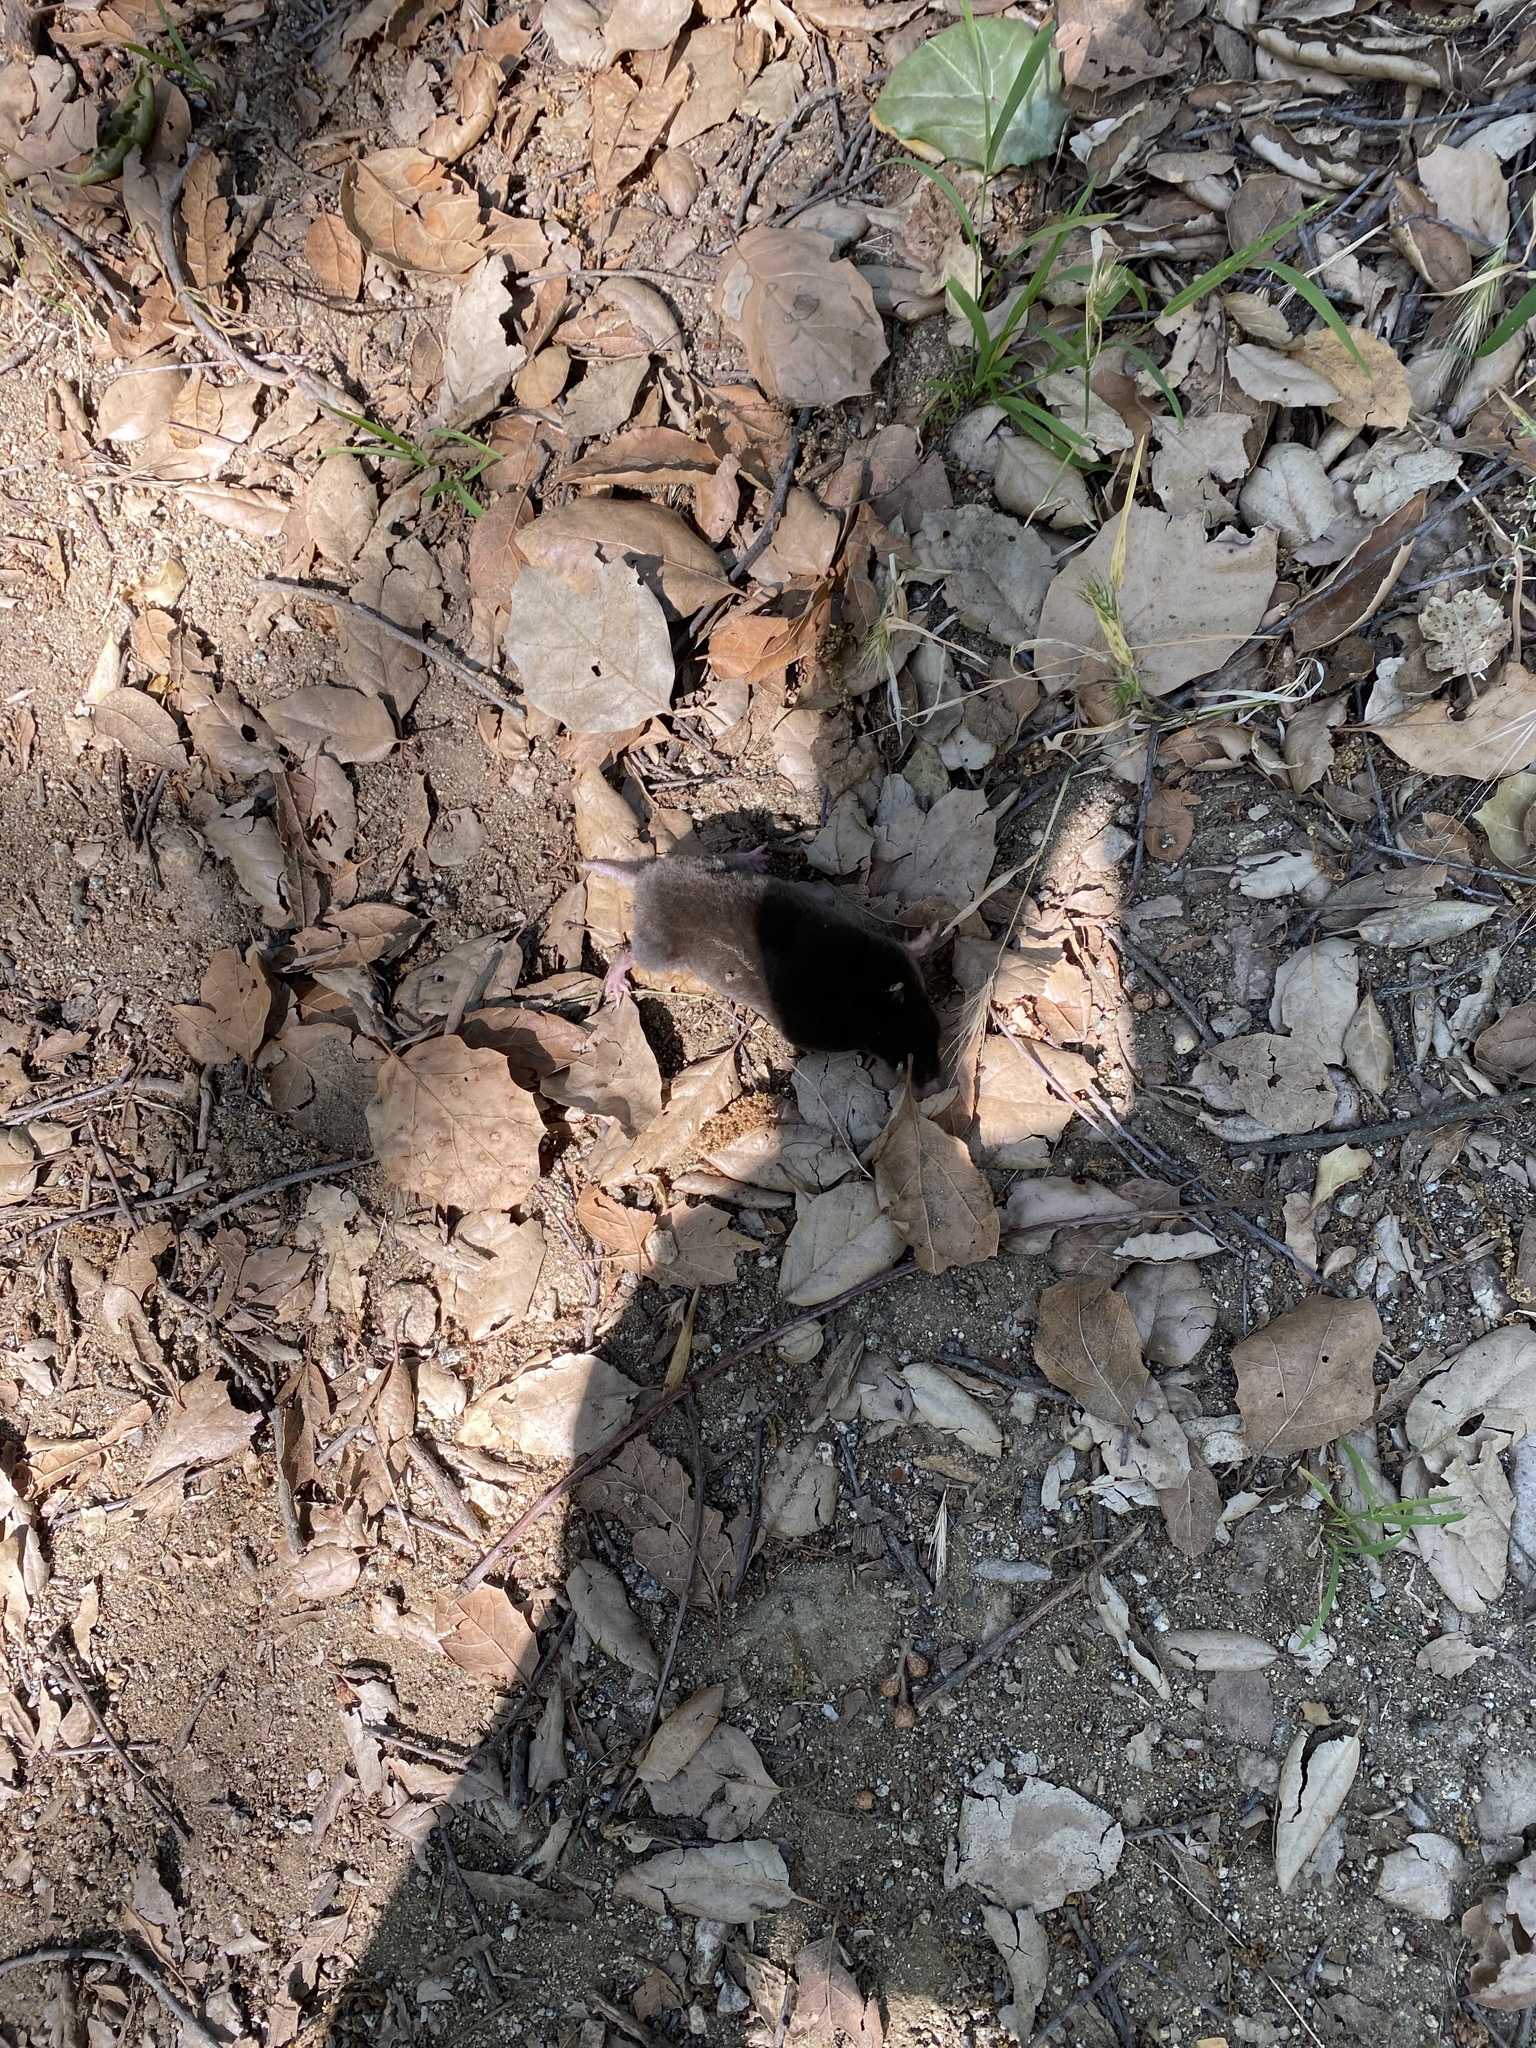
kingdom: Animalia
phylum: Chordata
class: Mammalia
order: Soricomorpha
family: Talpidae
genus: Scapanus
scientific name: Scapanus latimanus
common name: Broad-footed mole
